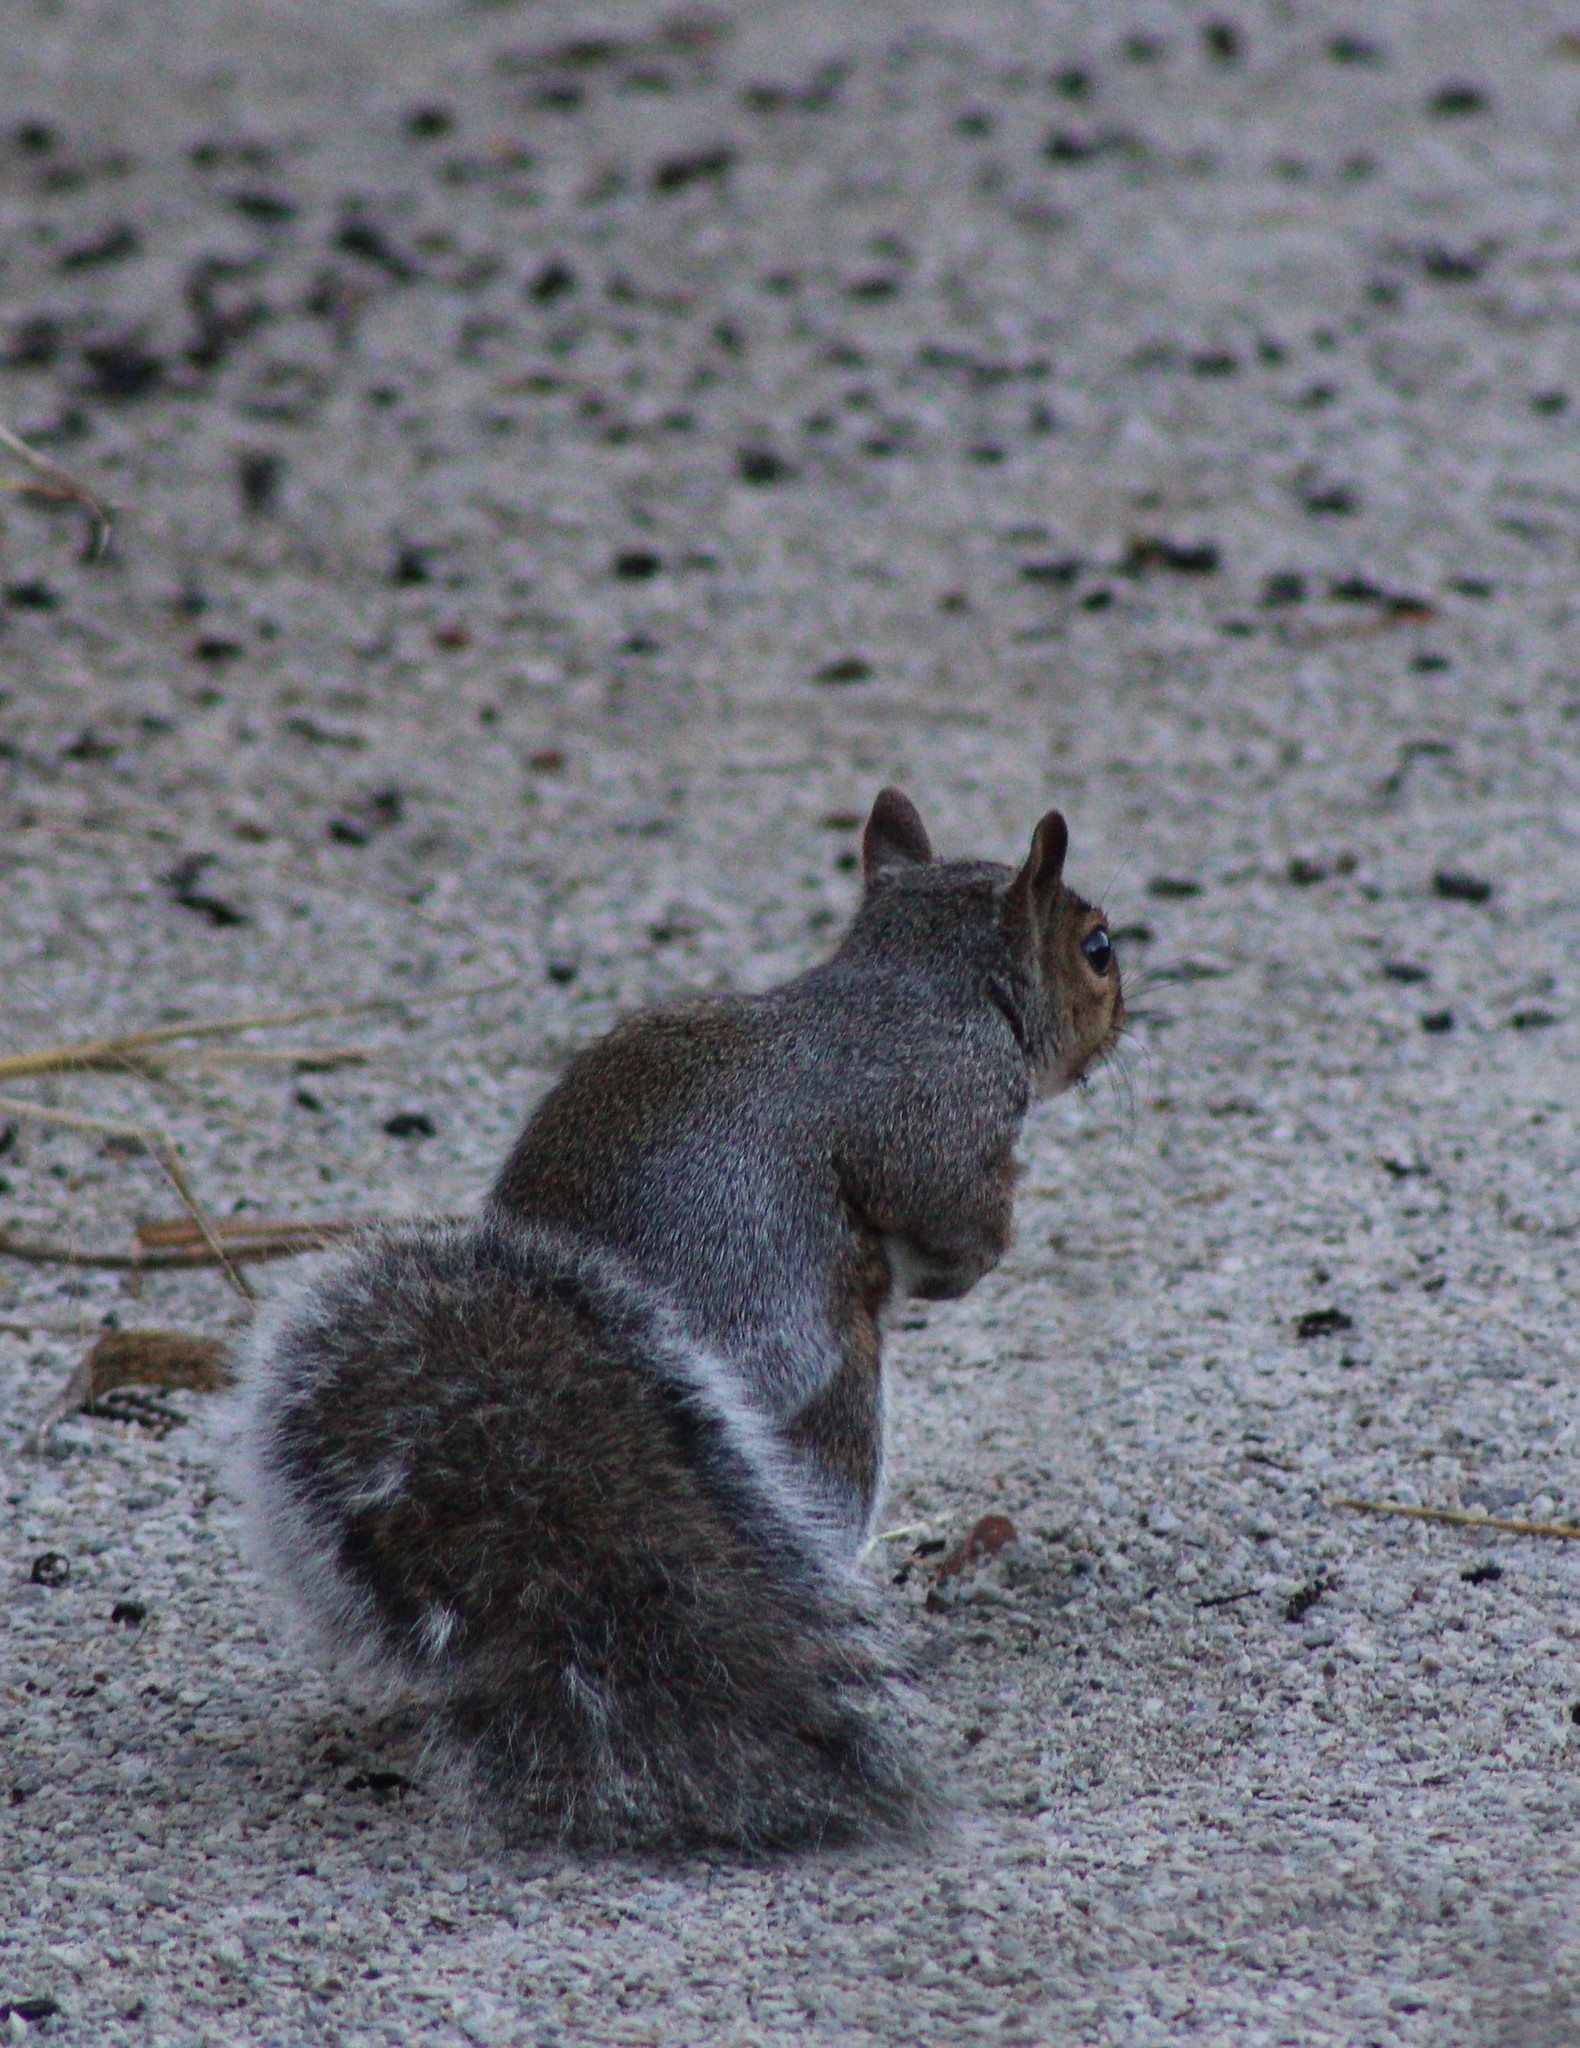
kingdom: Animalia
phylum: Chordata
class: Mammalia
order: Rodentia
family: Sciuridae
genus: Sciurus
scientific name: Sciurus carolinensis
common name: Eastern gray squirrel
